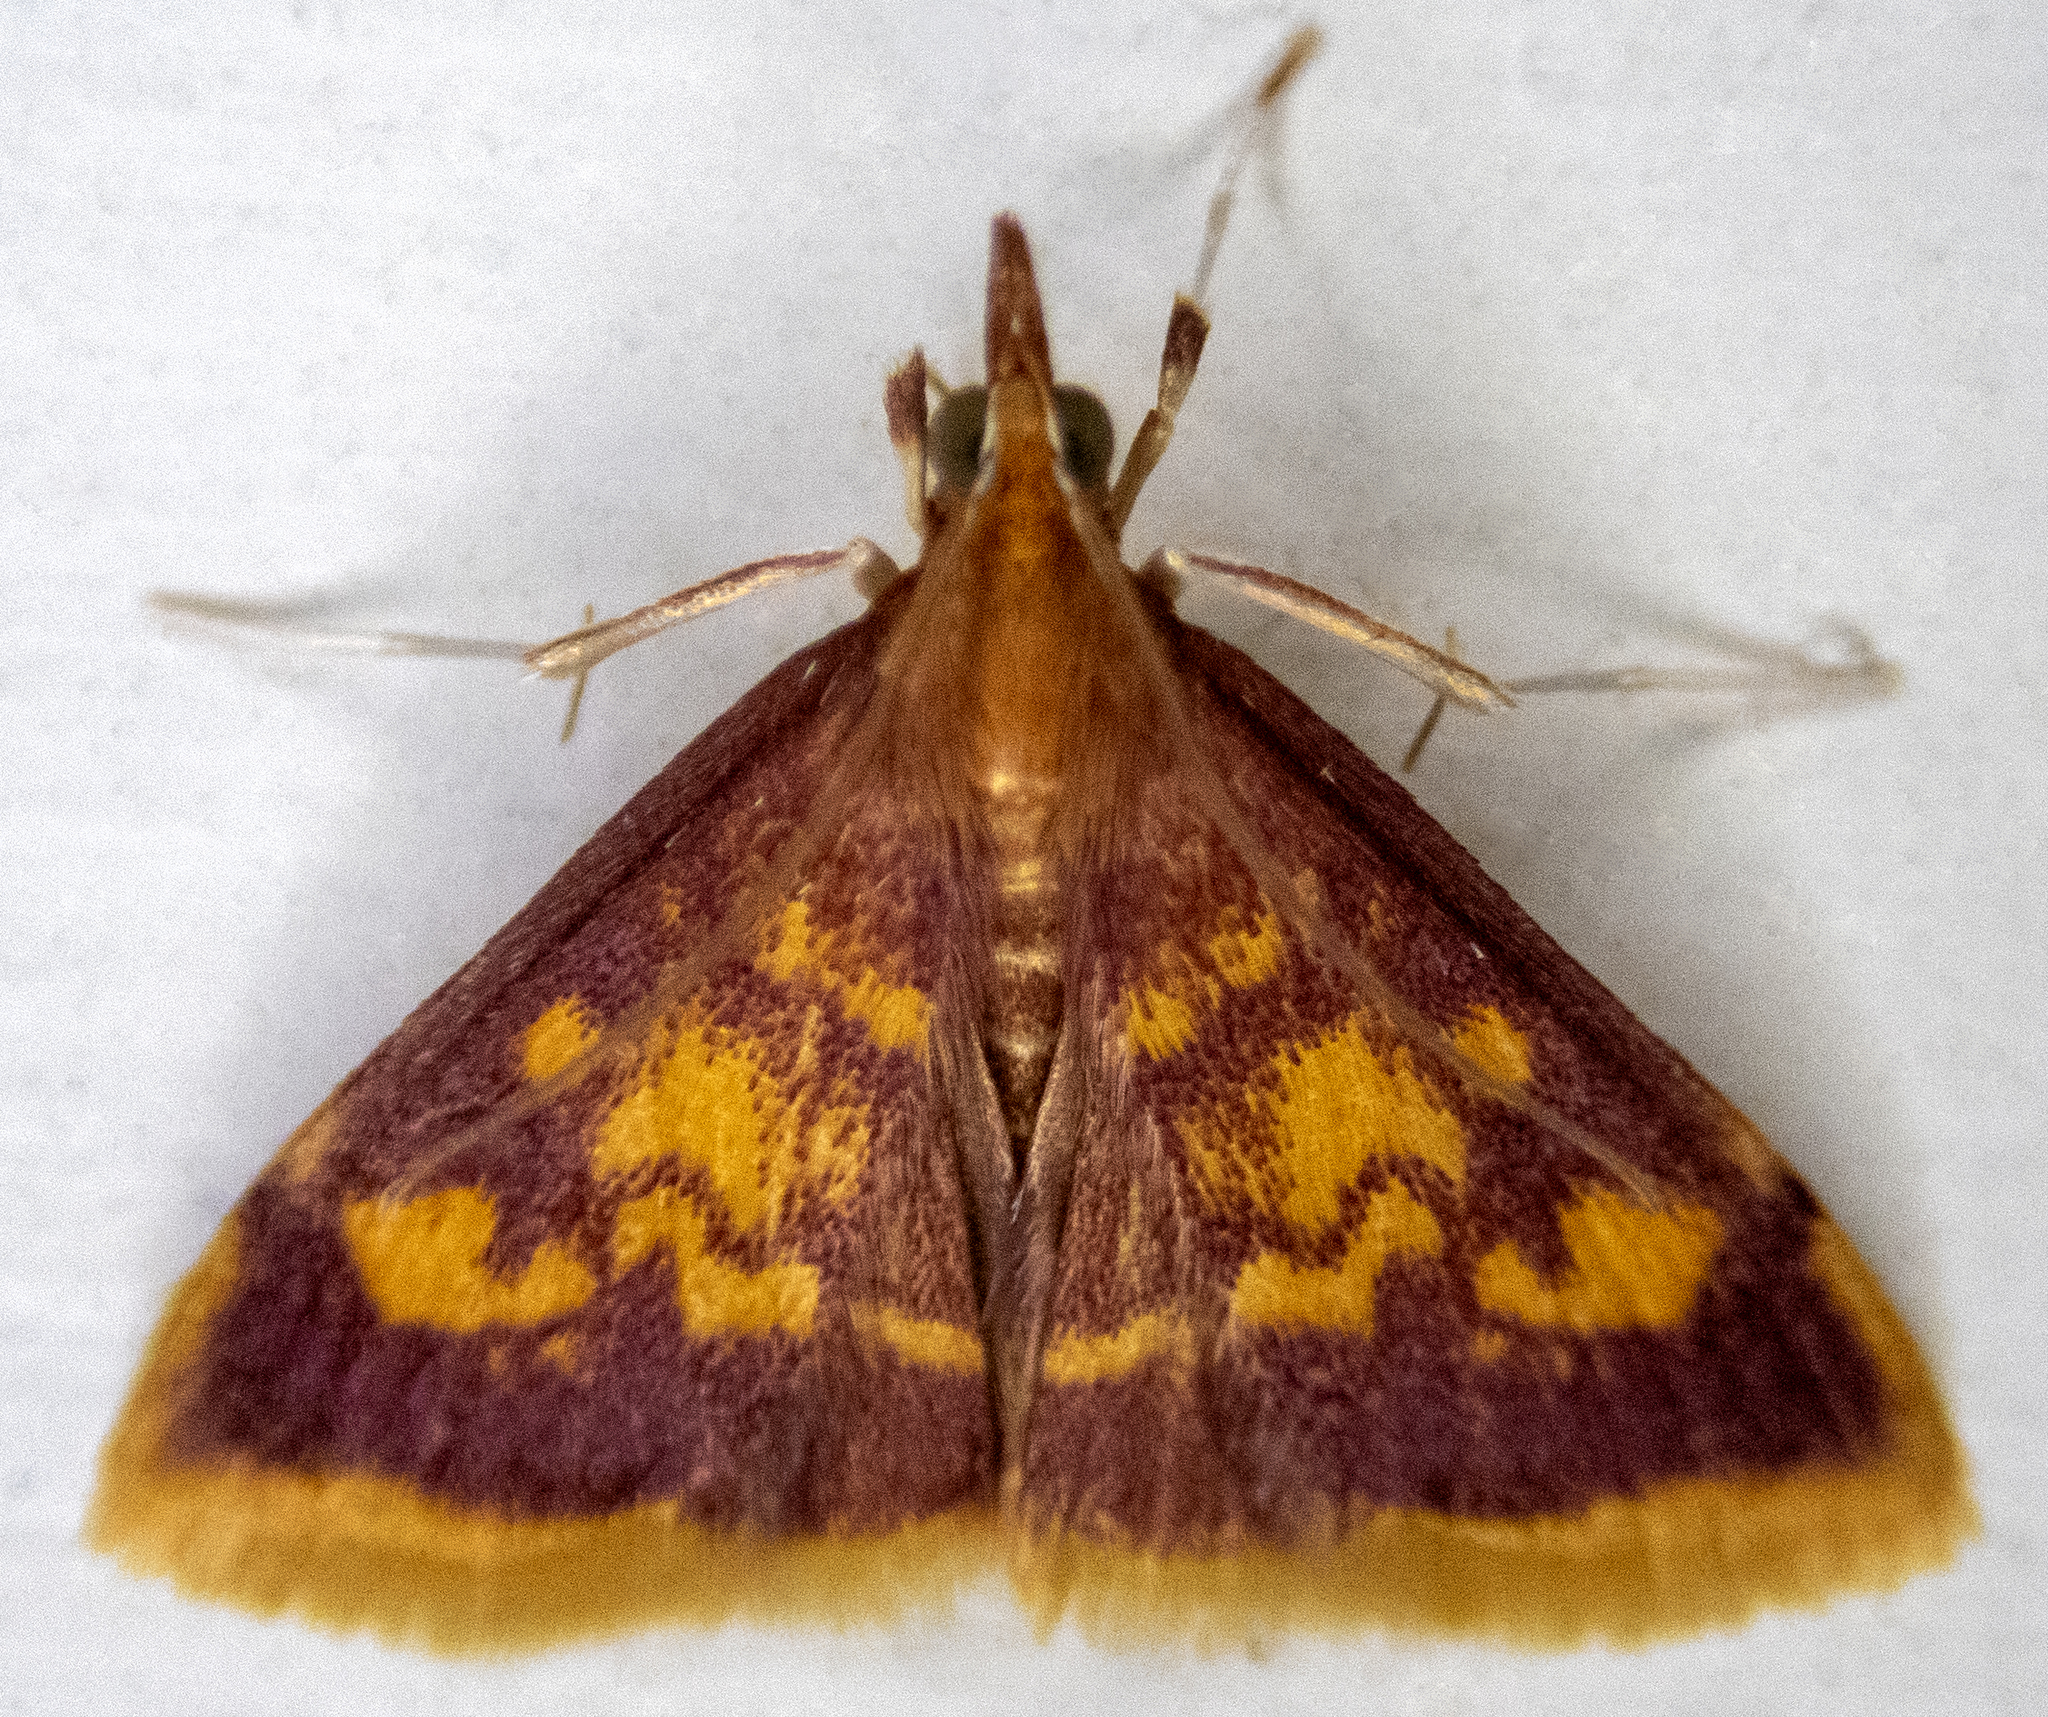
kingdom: Animalia
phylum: Arthropoda
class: Insecta
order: Lepidoptera
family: Crambidae
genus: Pyrausta
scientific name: Pyrausta acrionalis
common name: Mint-loving pyrausta moth
